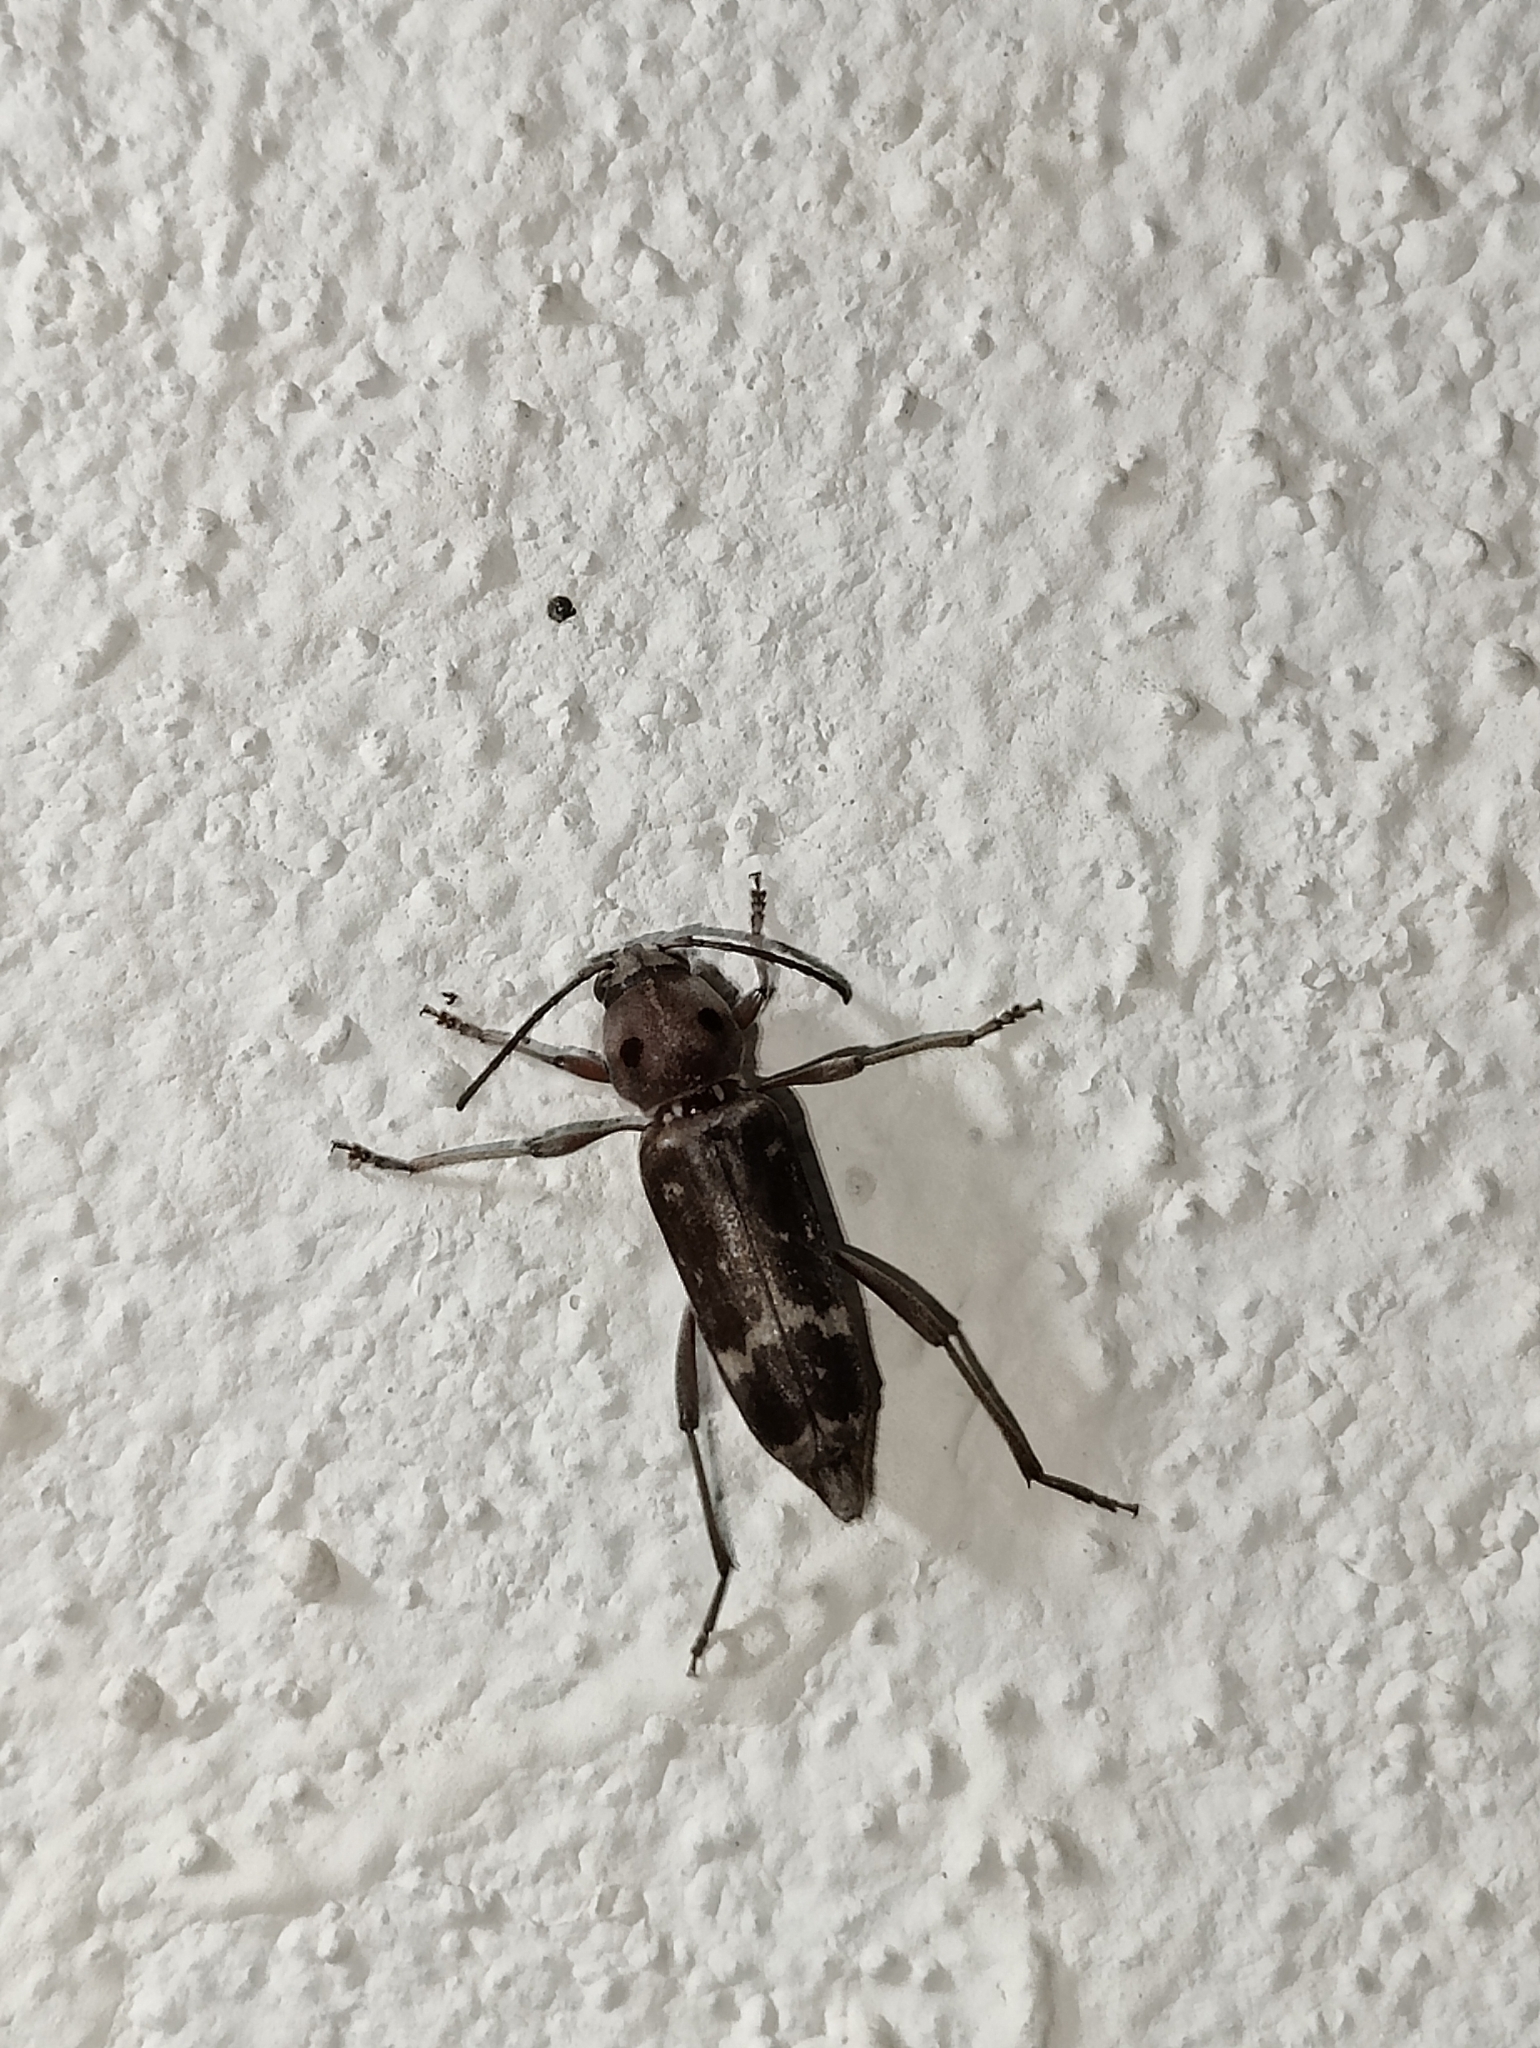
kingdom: Animalia
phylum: Arthropoda
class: Insecta
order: Coleoptera
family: Cerambycidae
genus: Xylotrechus
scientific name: Xylotrechus smei
